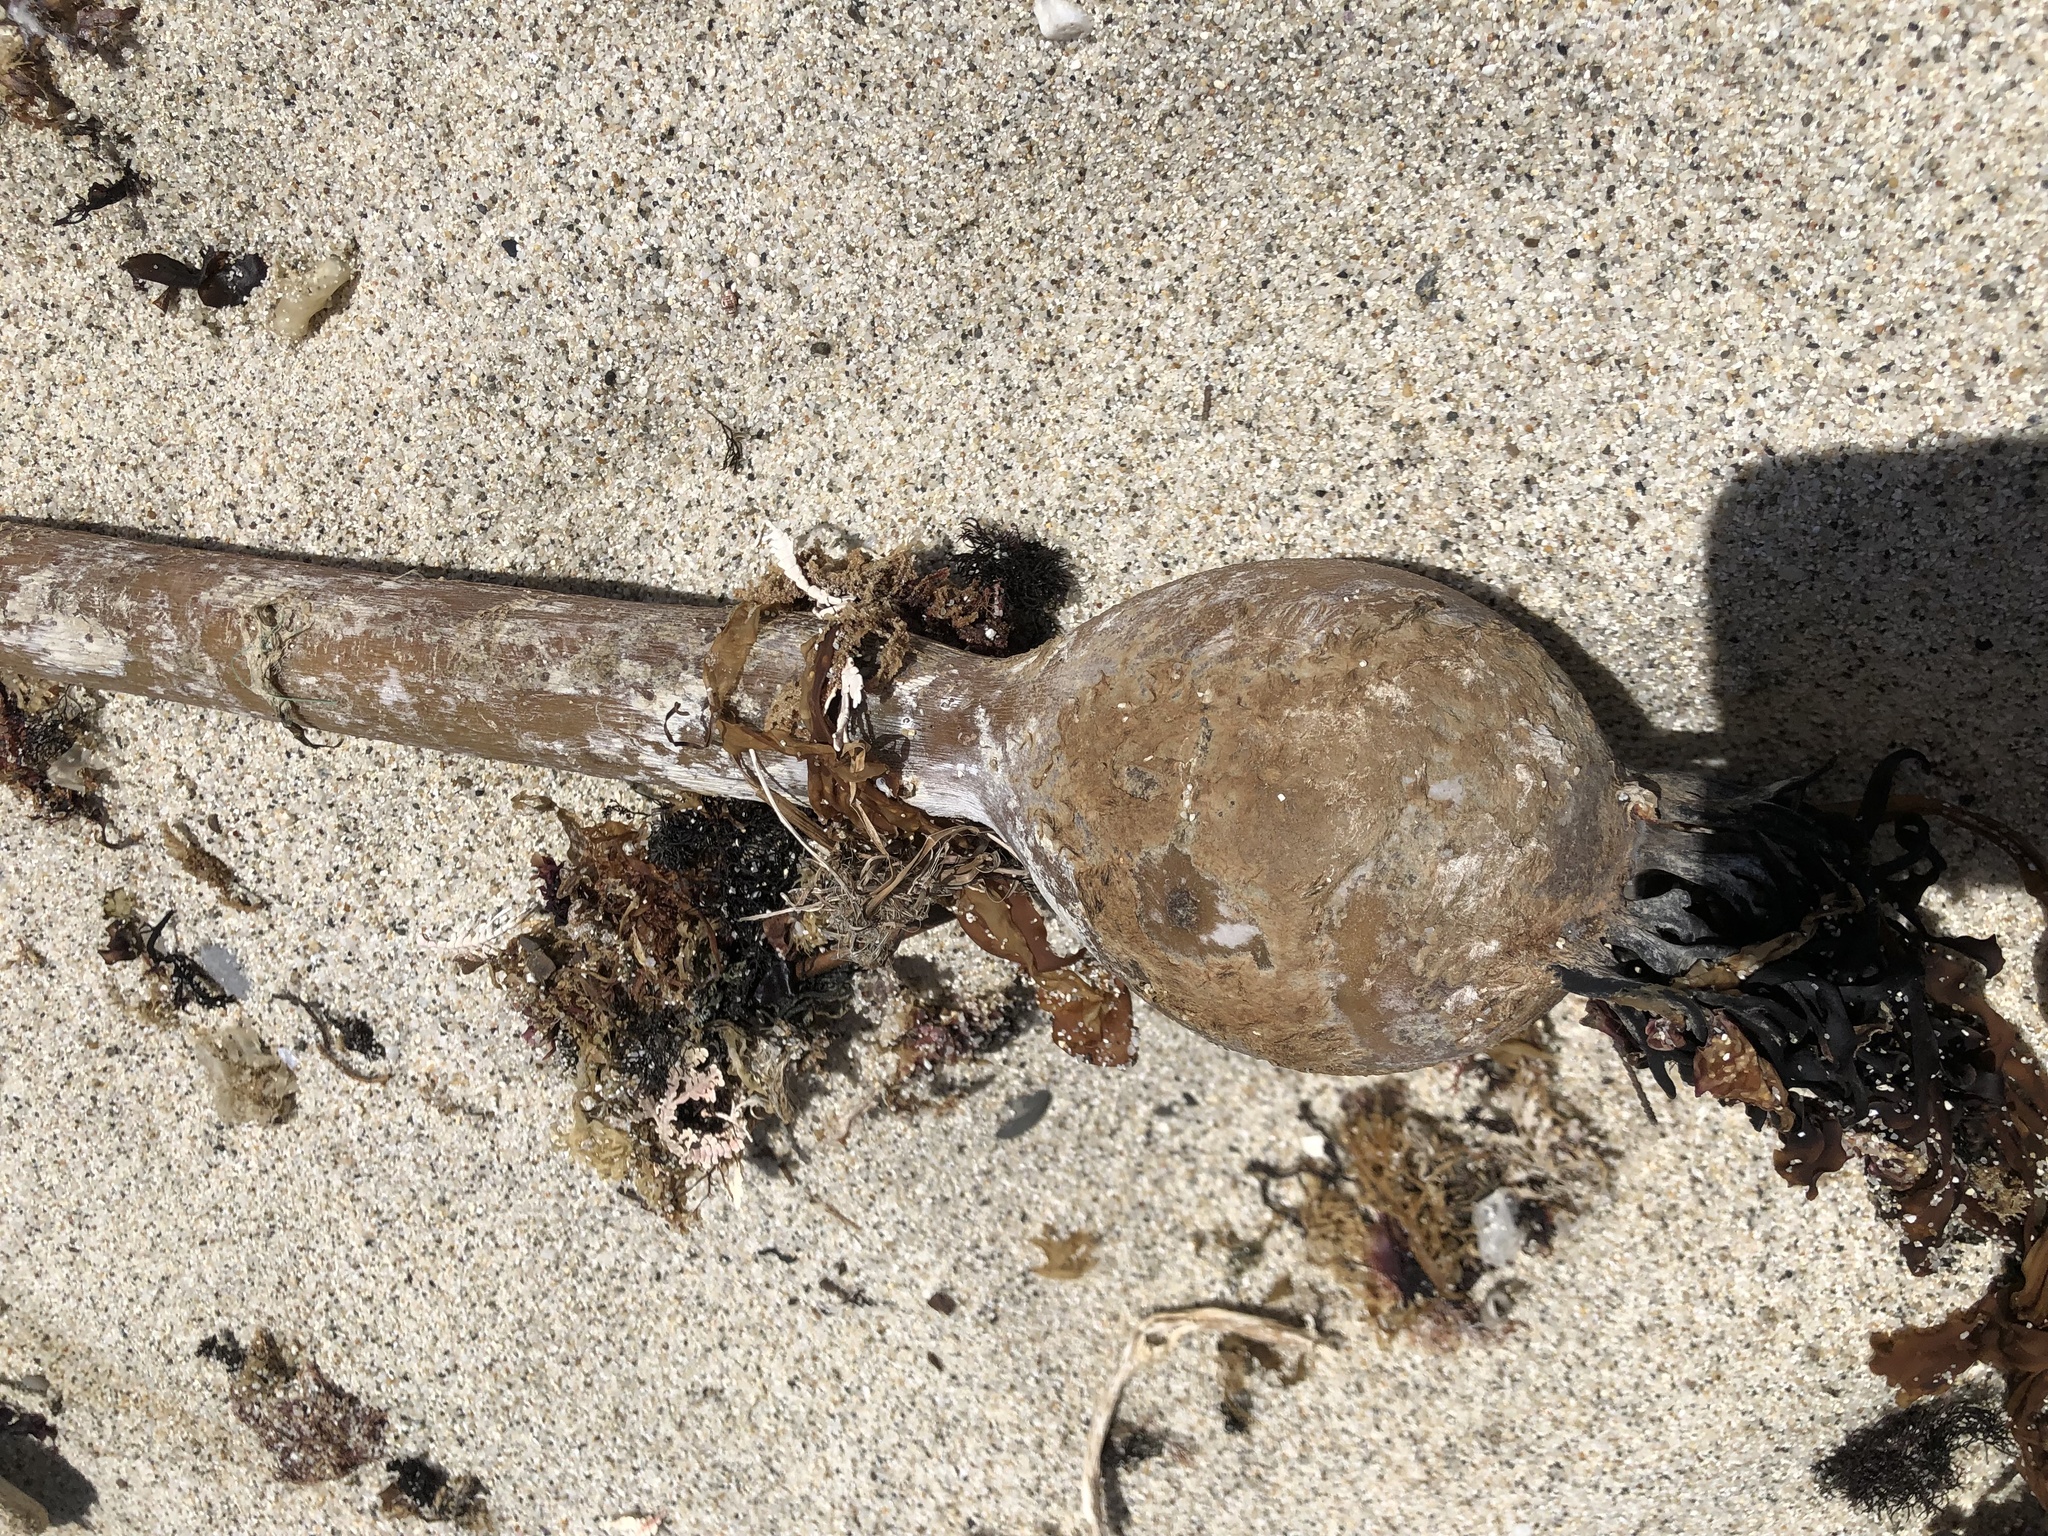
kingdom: Chromista
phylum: Ochrophyta
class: Phaeophyceae
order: Laminariales
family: Laminariaceae
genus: Nereocystis
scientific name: Nereocystis luetkeana
